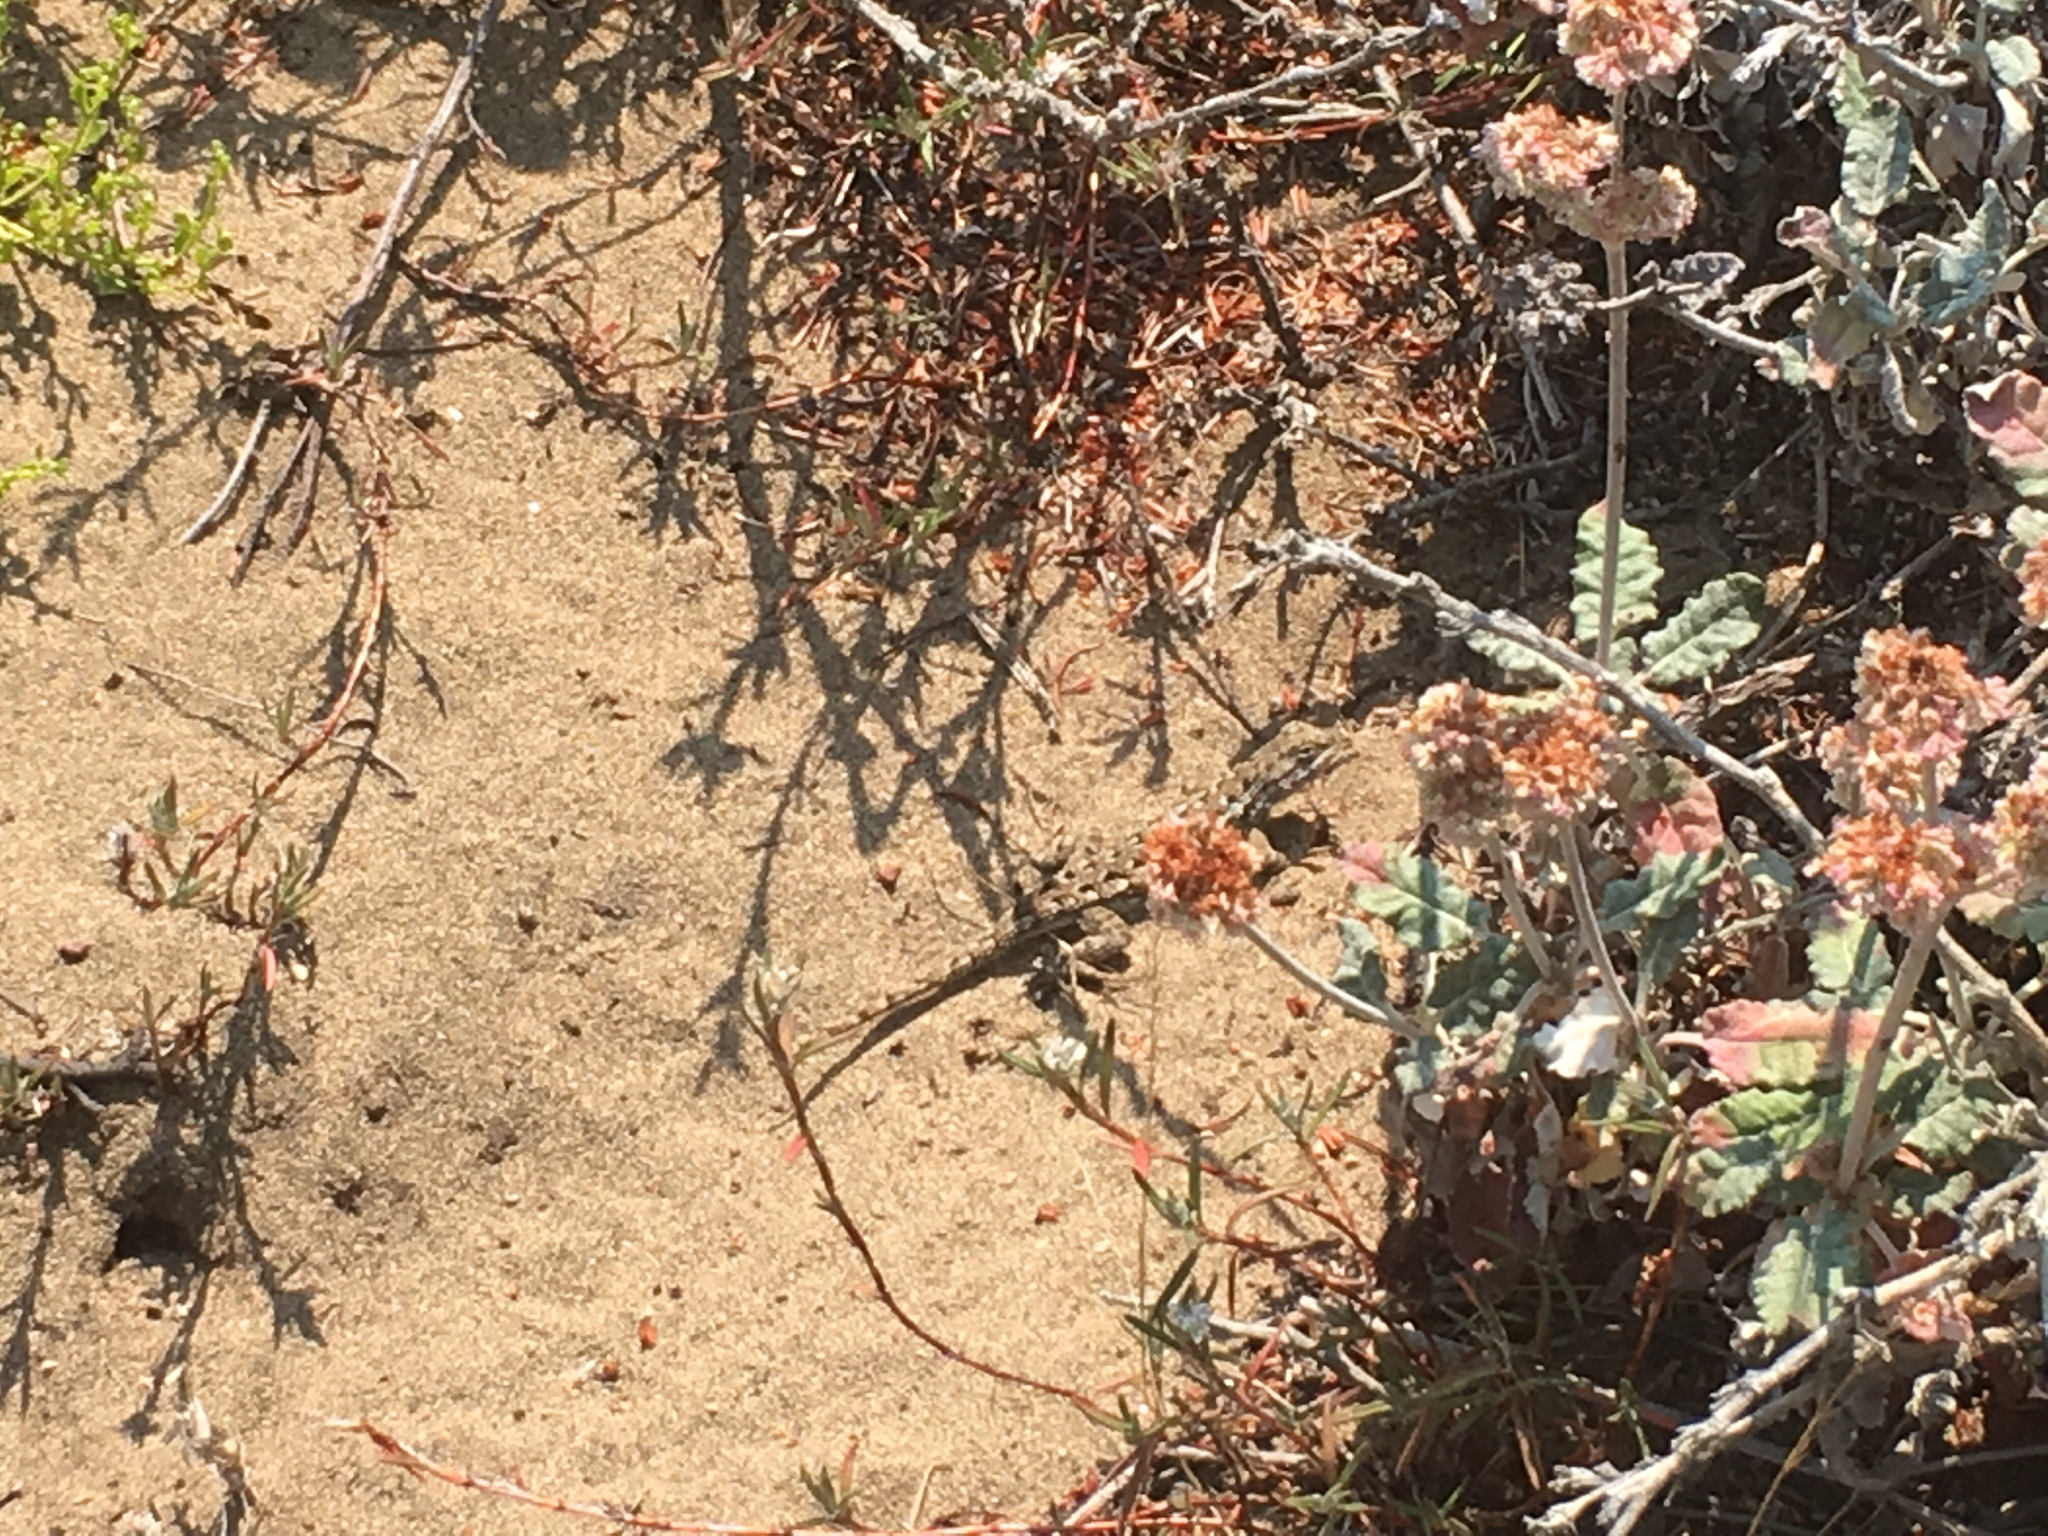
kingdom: Animalia
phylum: Chordata
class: Squamata
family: Phrynosomatidae
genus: Sceloporus
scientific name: Sceloporus occidentalis
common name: Western fence lizard
